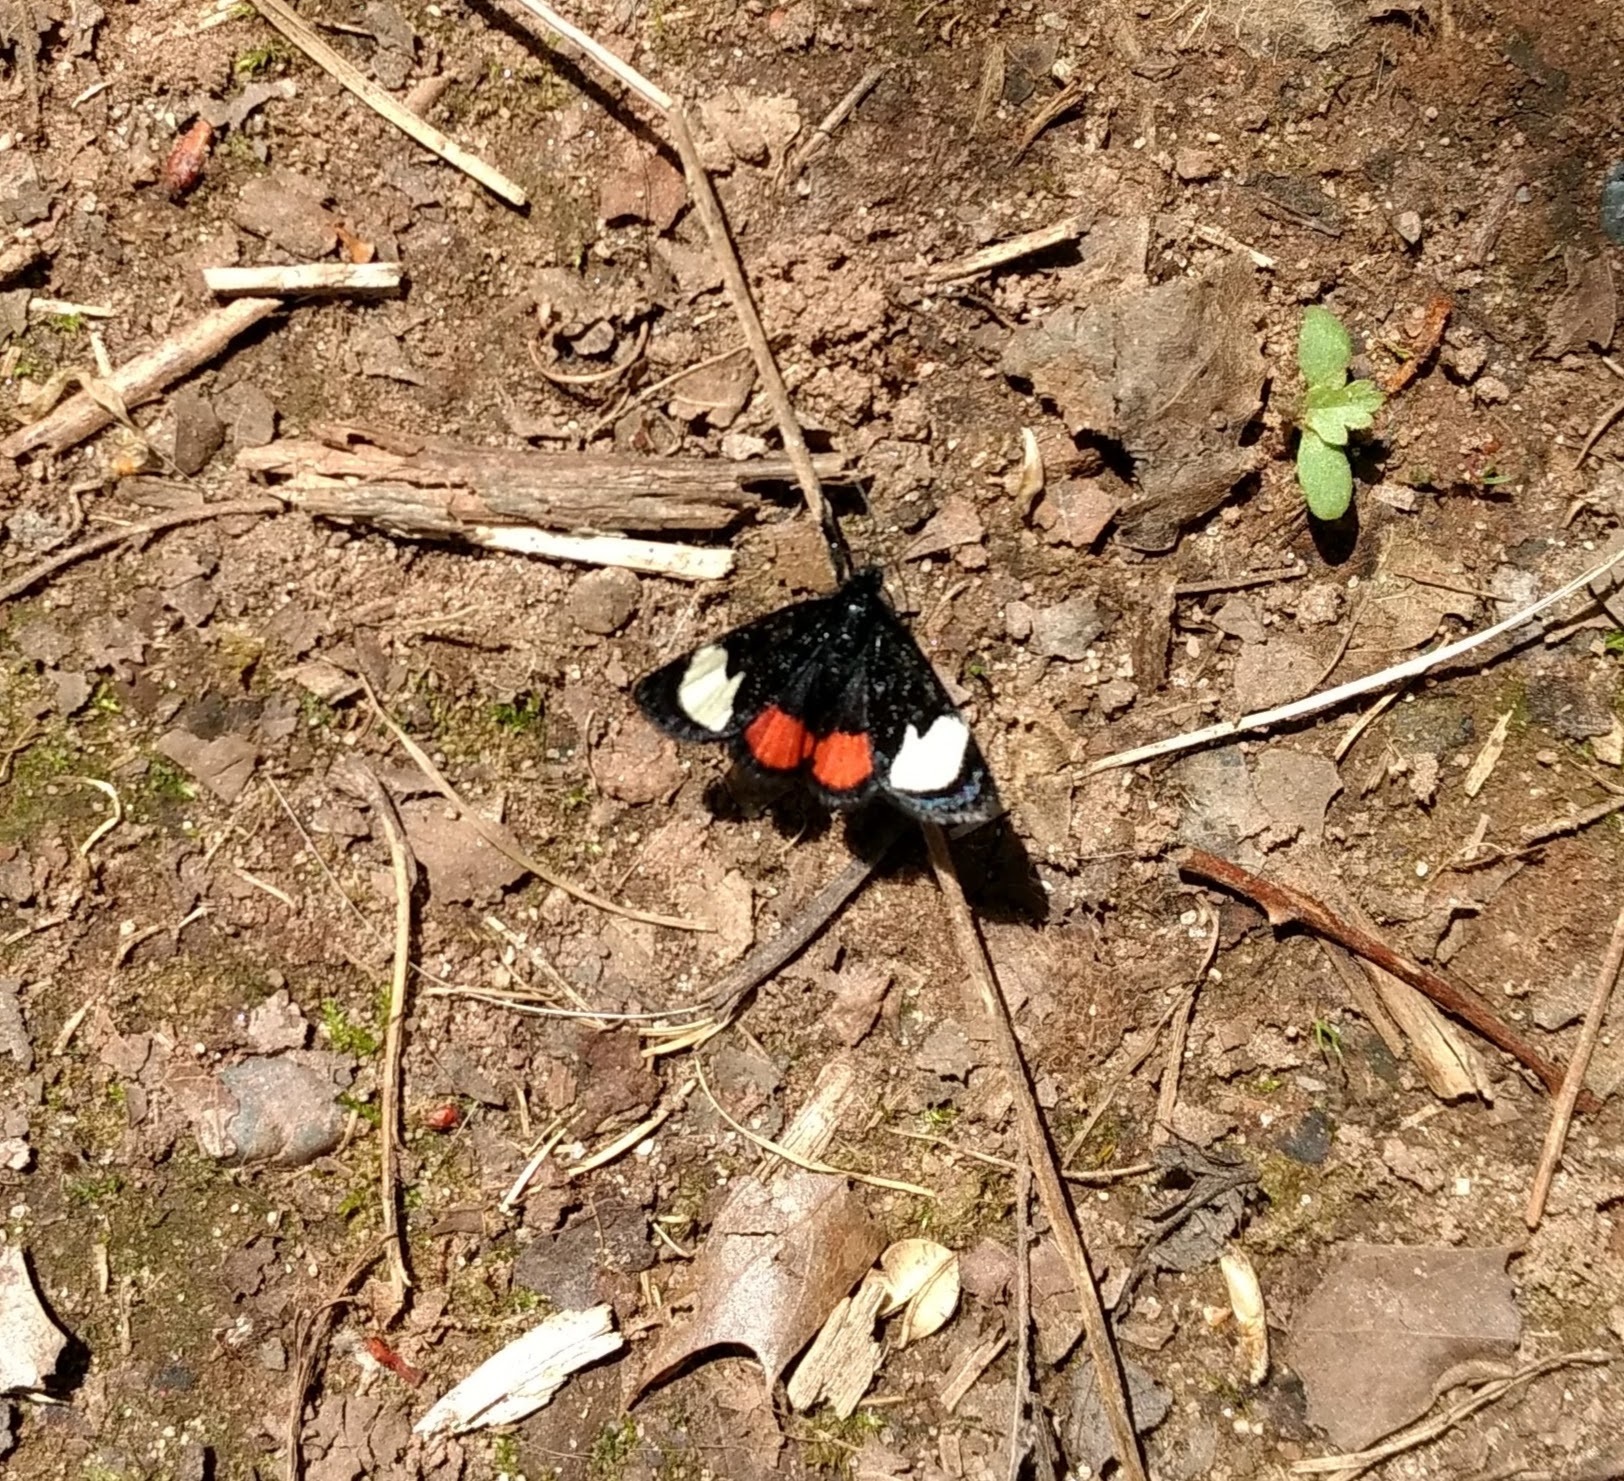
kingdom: Animalia
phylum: Arthropoda
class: Insecta
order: Lepidoptera
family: Noctuidae
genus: Psychomorpha
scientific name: Psychomorpha epimenis
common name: Grapevine epimenis moth
